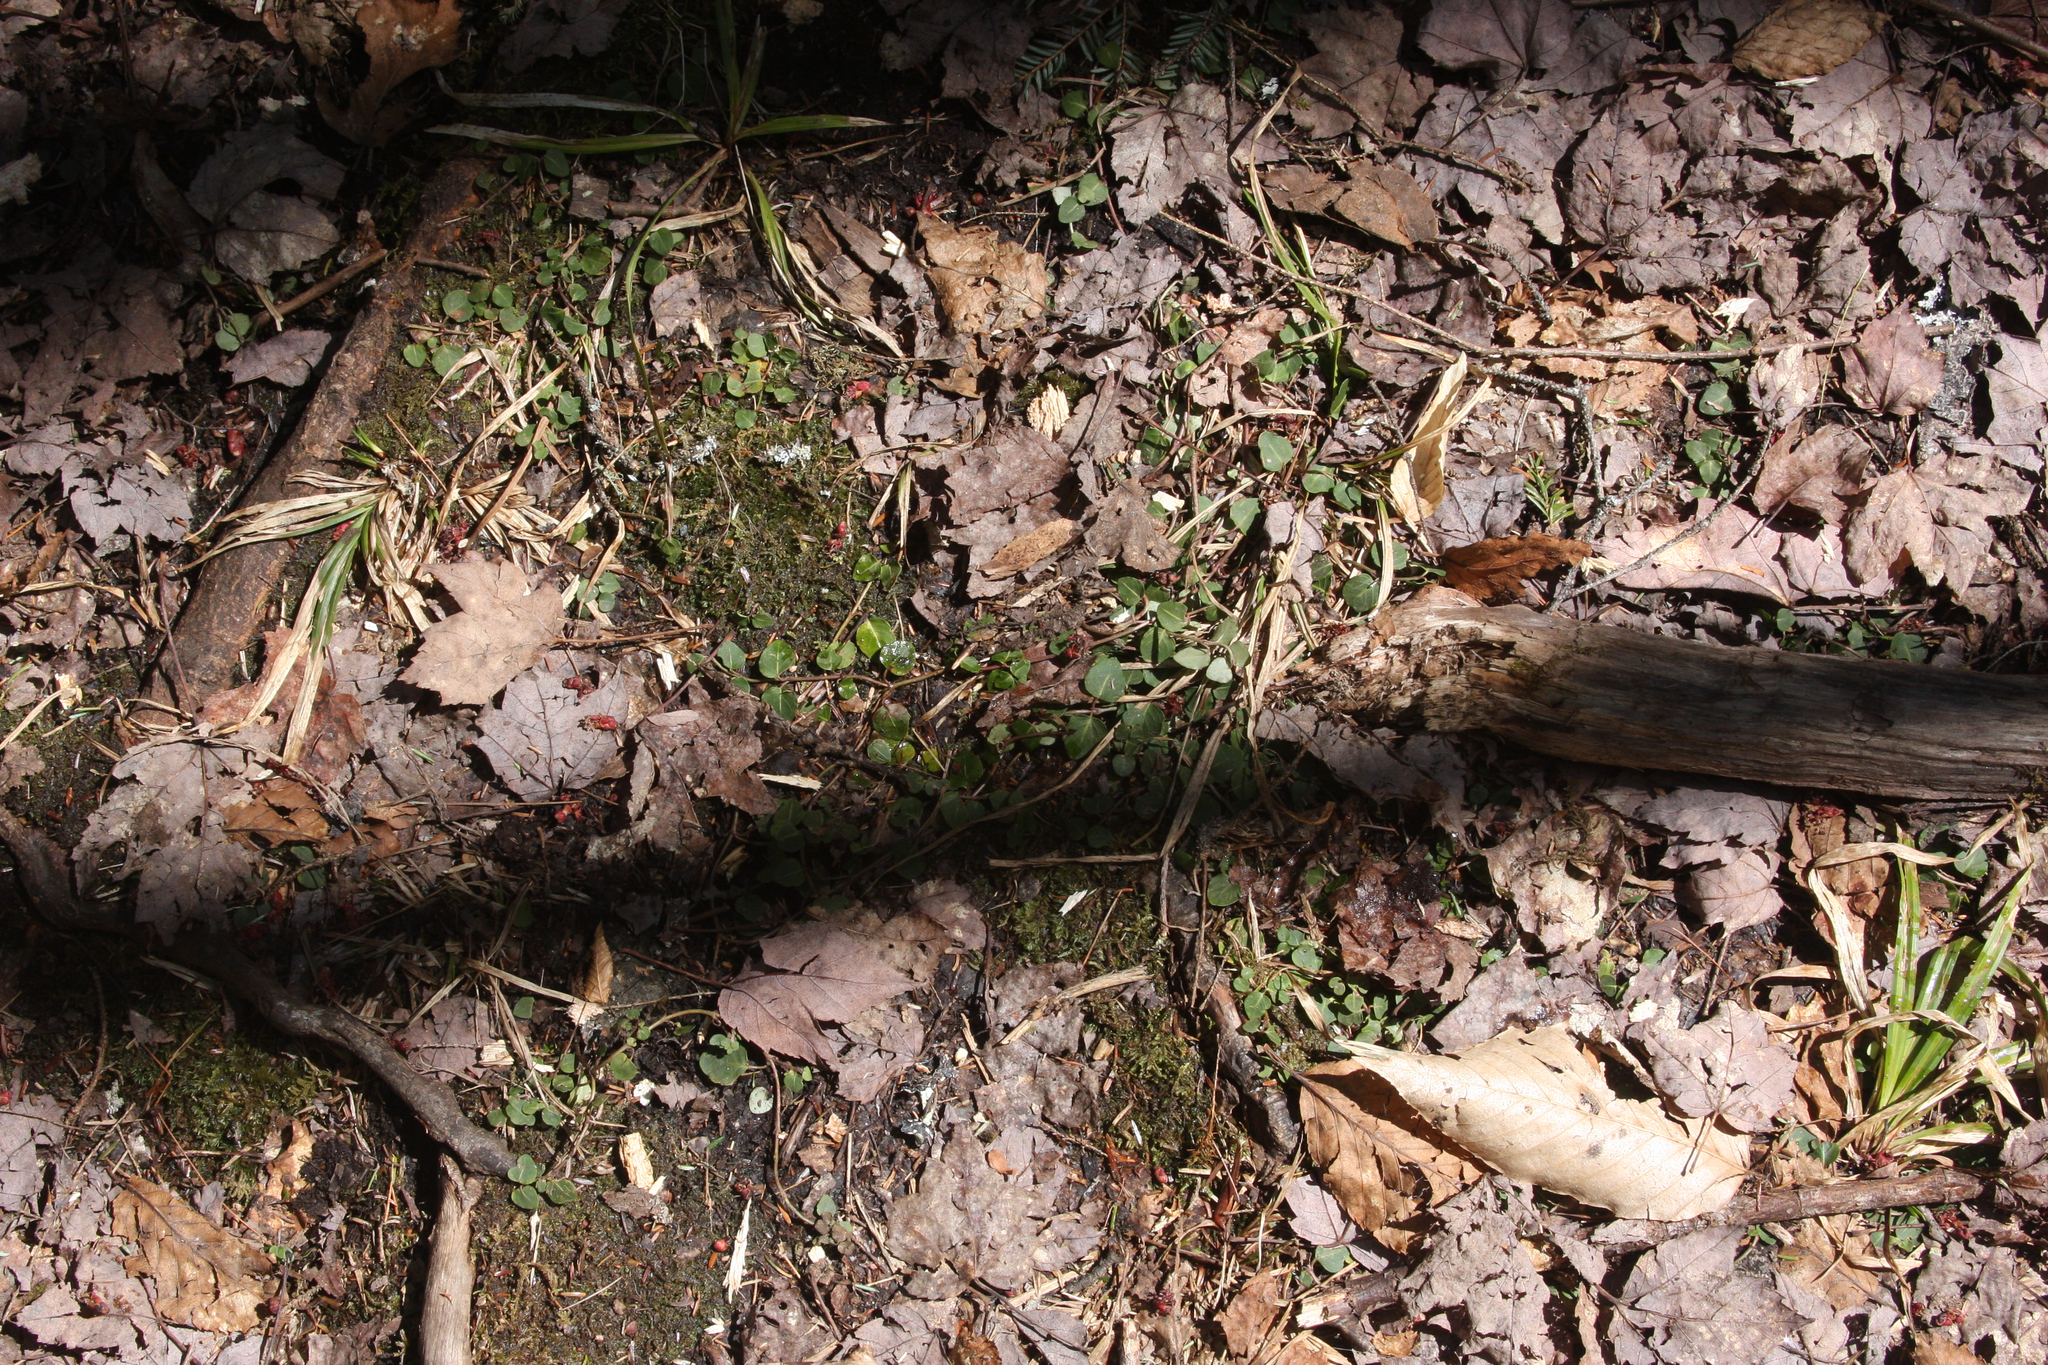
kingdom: Plantae
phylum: Tracheophyta
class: Magnoliopsida
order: Gentianales
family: Rubiaceae
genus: Mitchella
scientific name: Mitchella repens
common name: Partridge-berry
